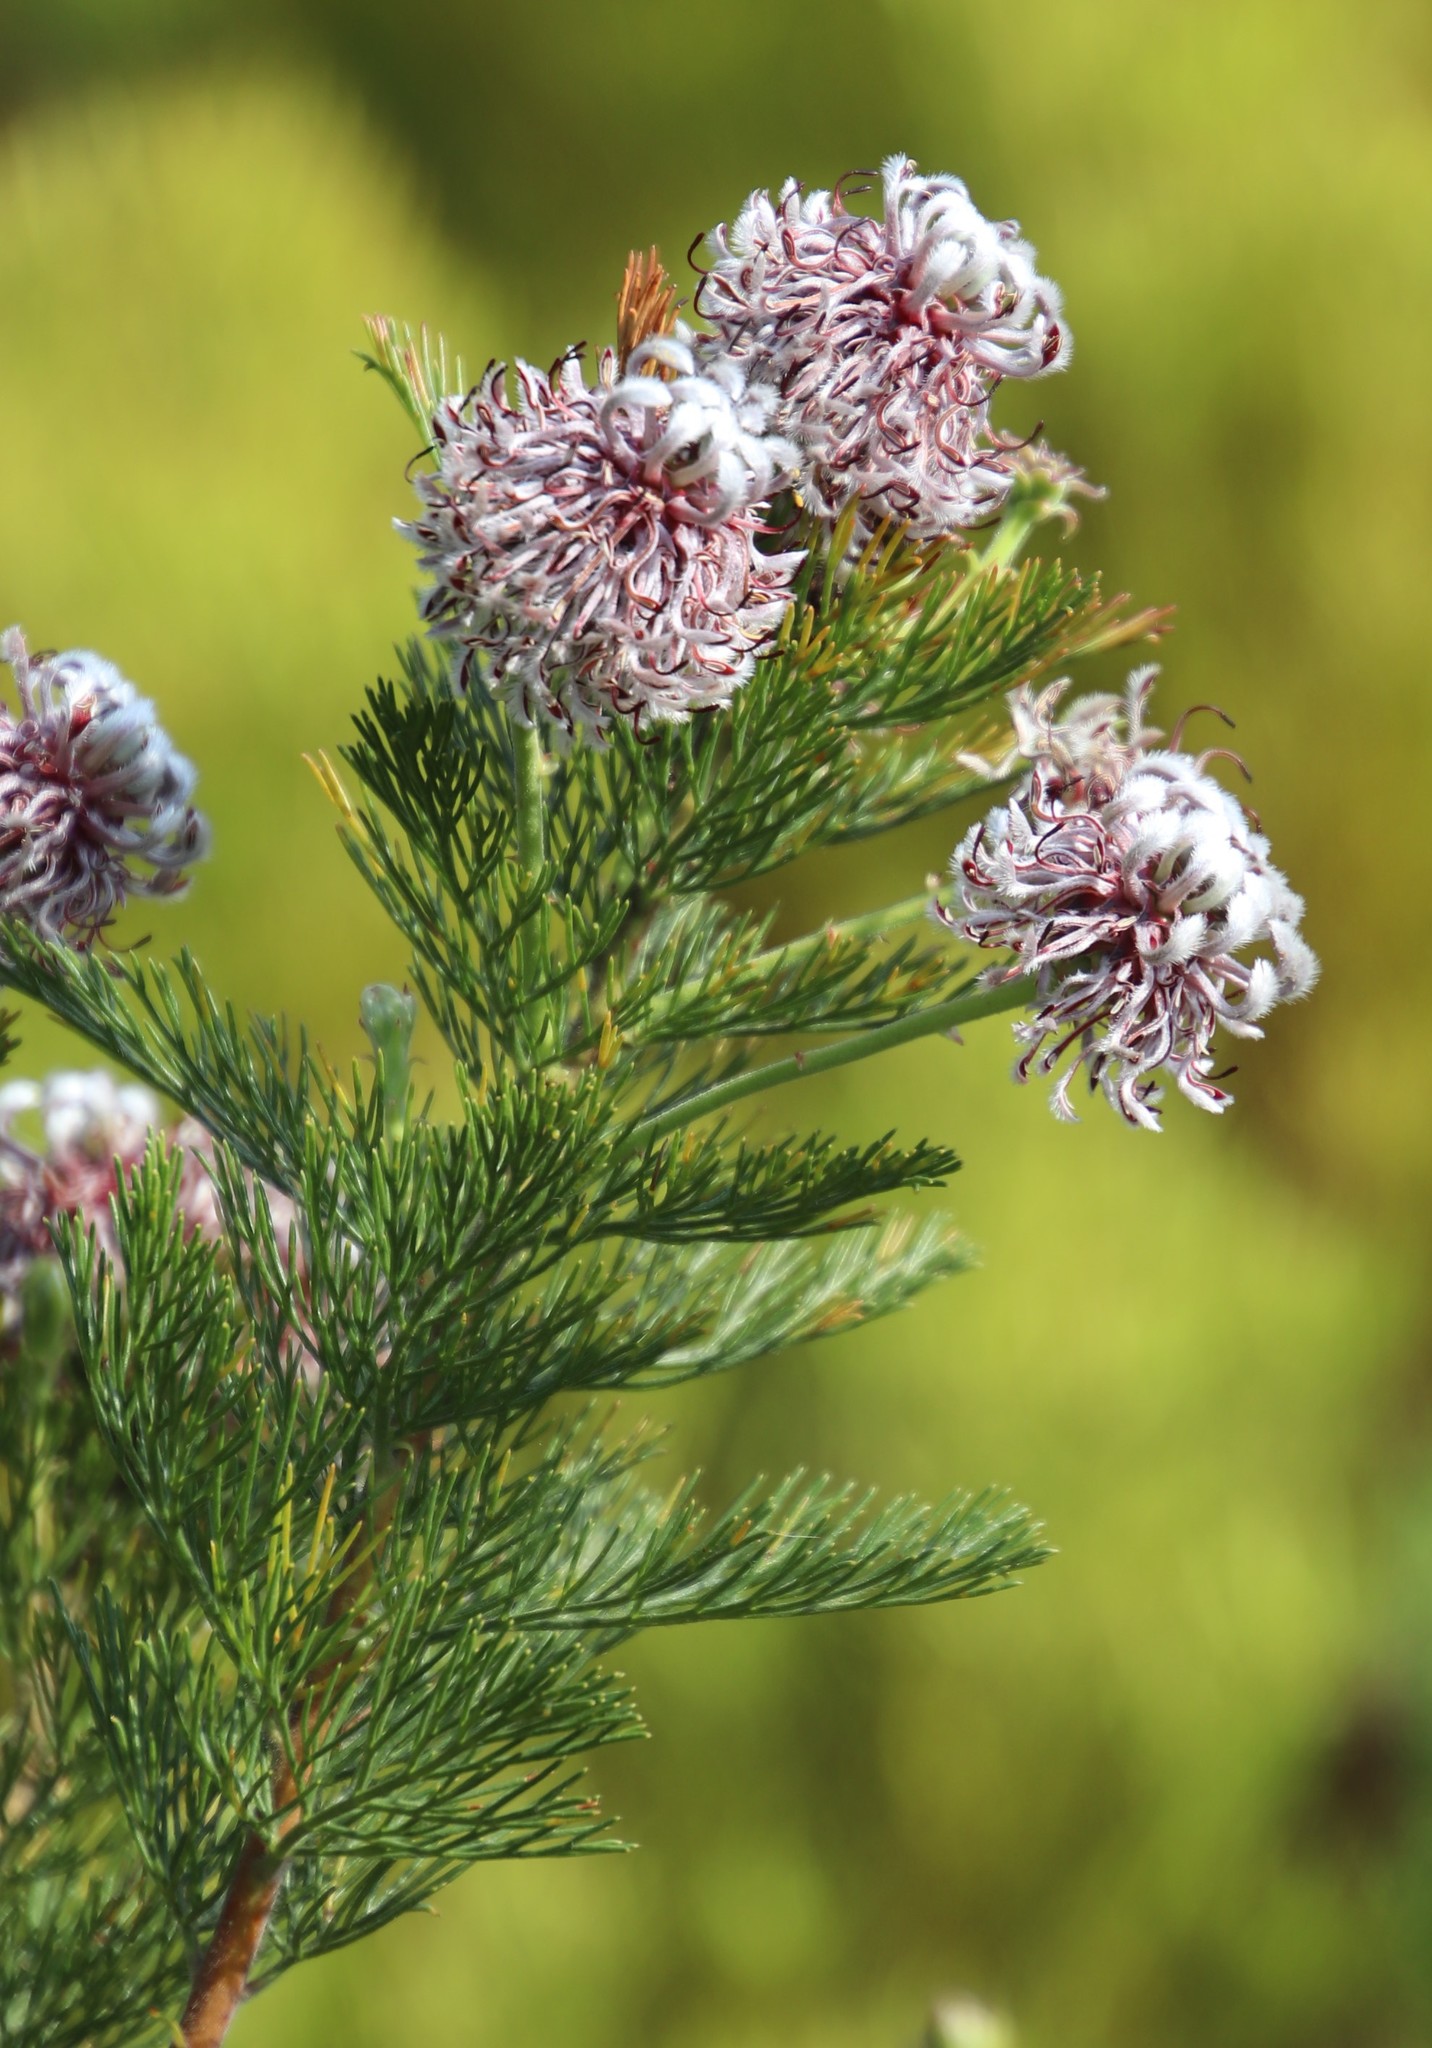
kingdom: Plantae
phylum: Tracheophyta
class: Magnoliopsida
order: Proteales
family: Proteaceae
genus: Serruria
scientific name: Serruria acrocarpa
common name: Common rootstock spiderhead
